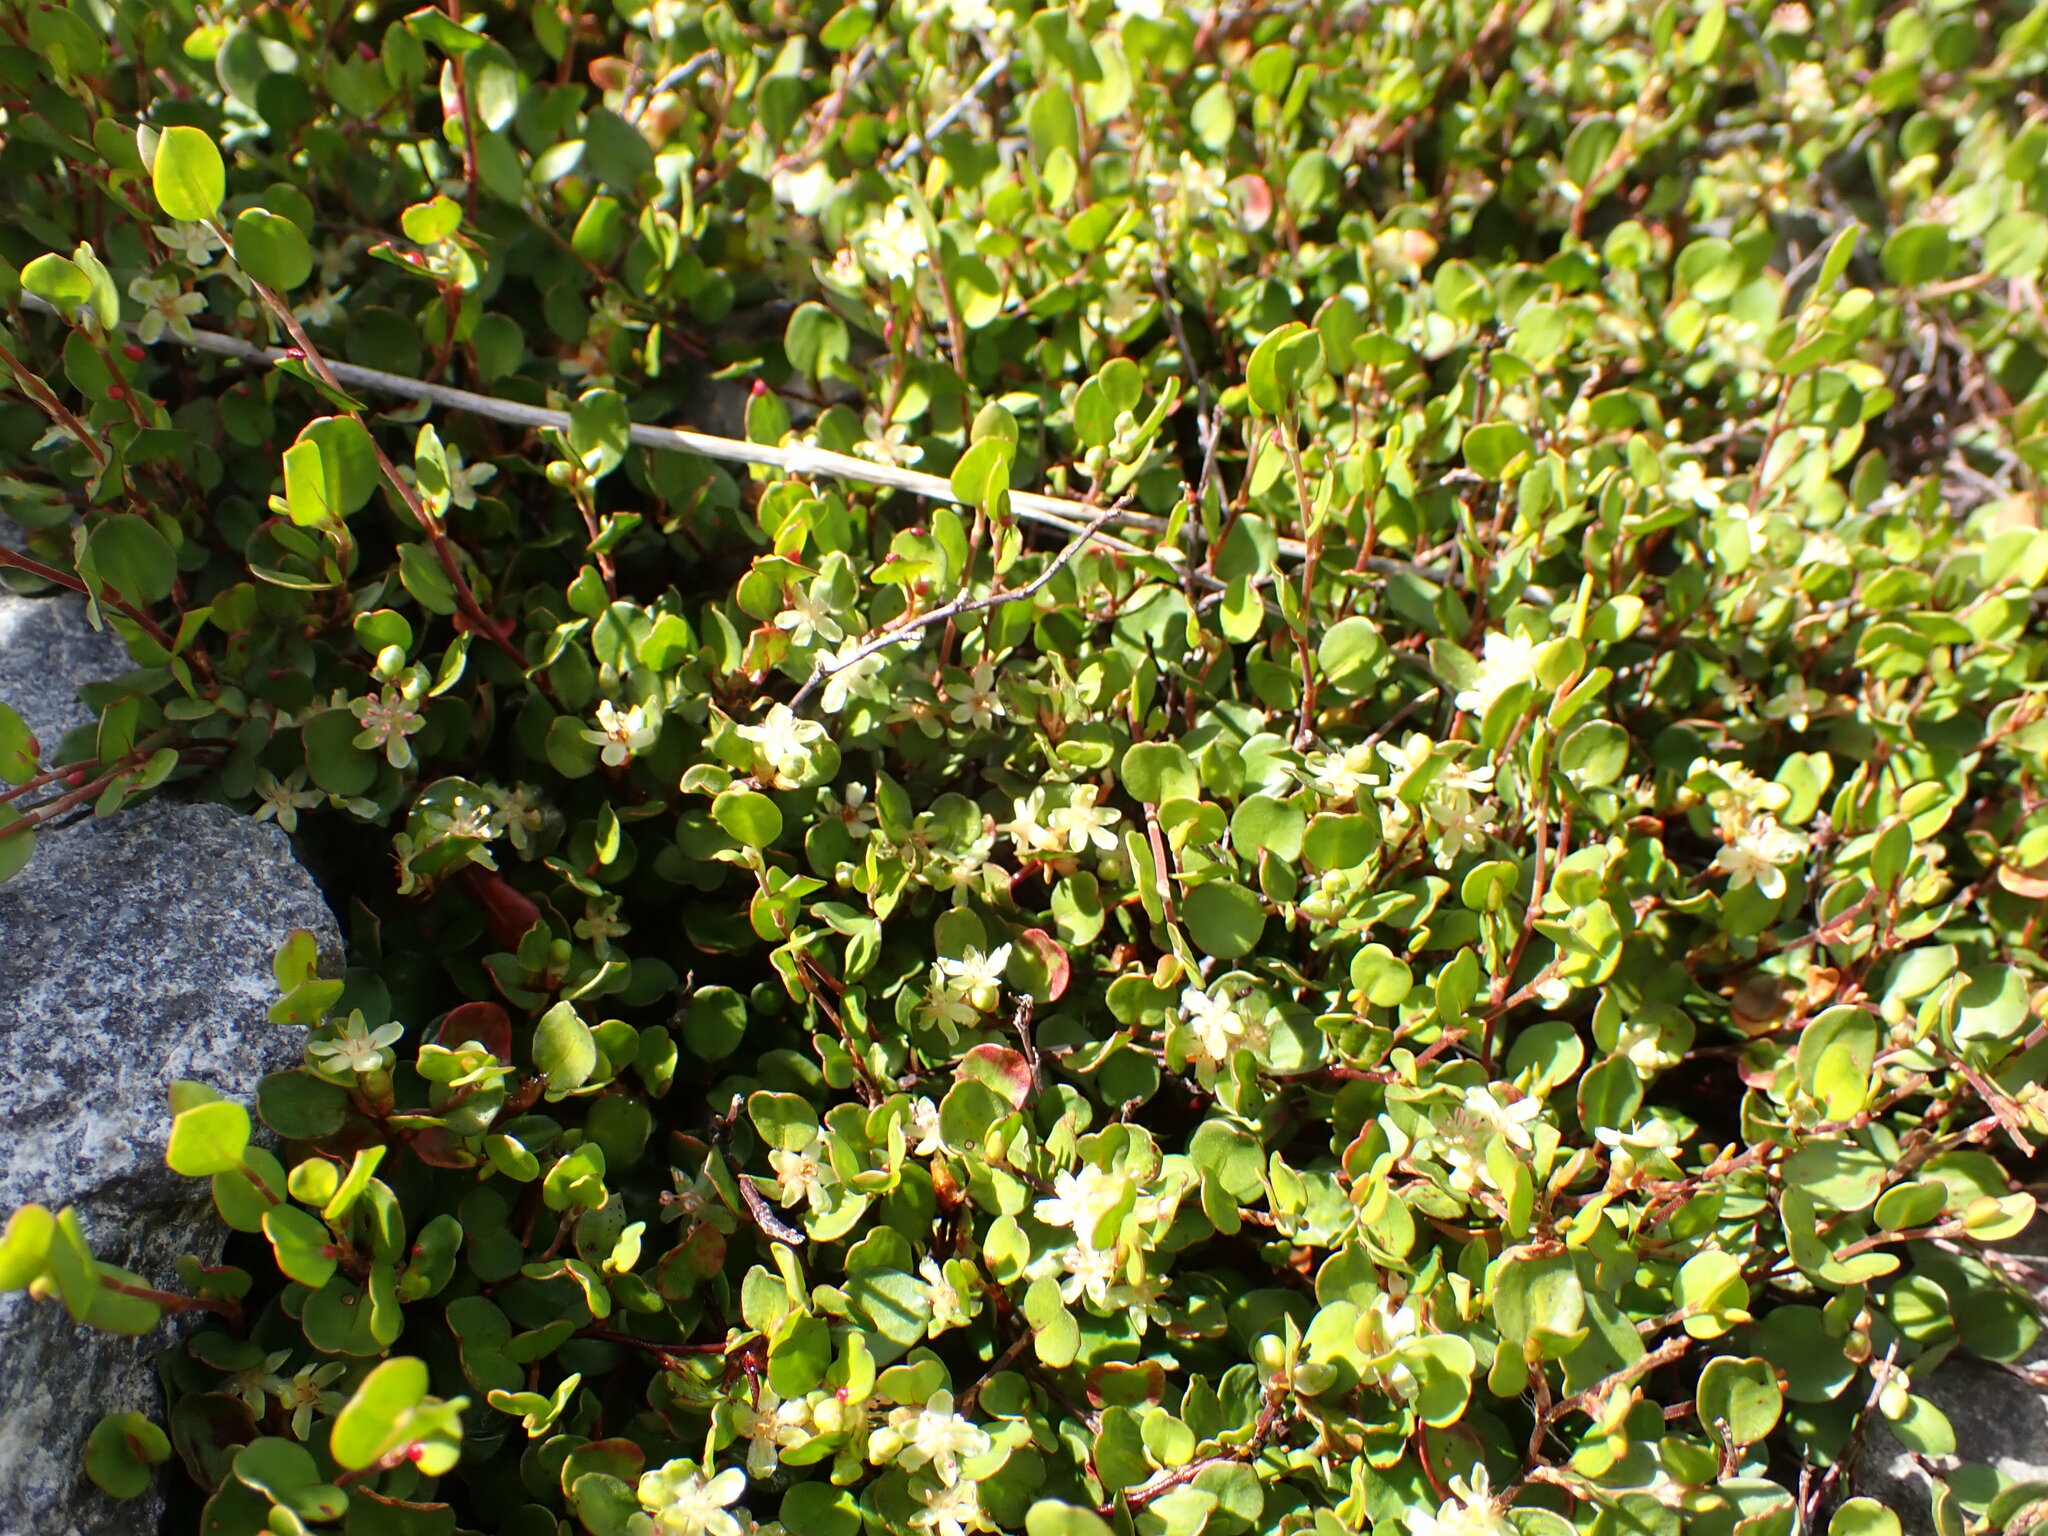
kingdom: Plantae
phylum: Tracheophyta
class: Magnoliopsida
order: Caryophyllales
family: Polygonaceae
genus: Muehlenbeckia
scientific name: Muehlenbeckia axillaris
